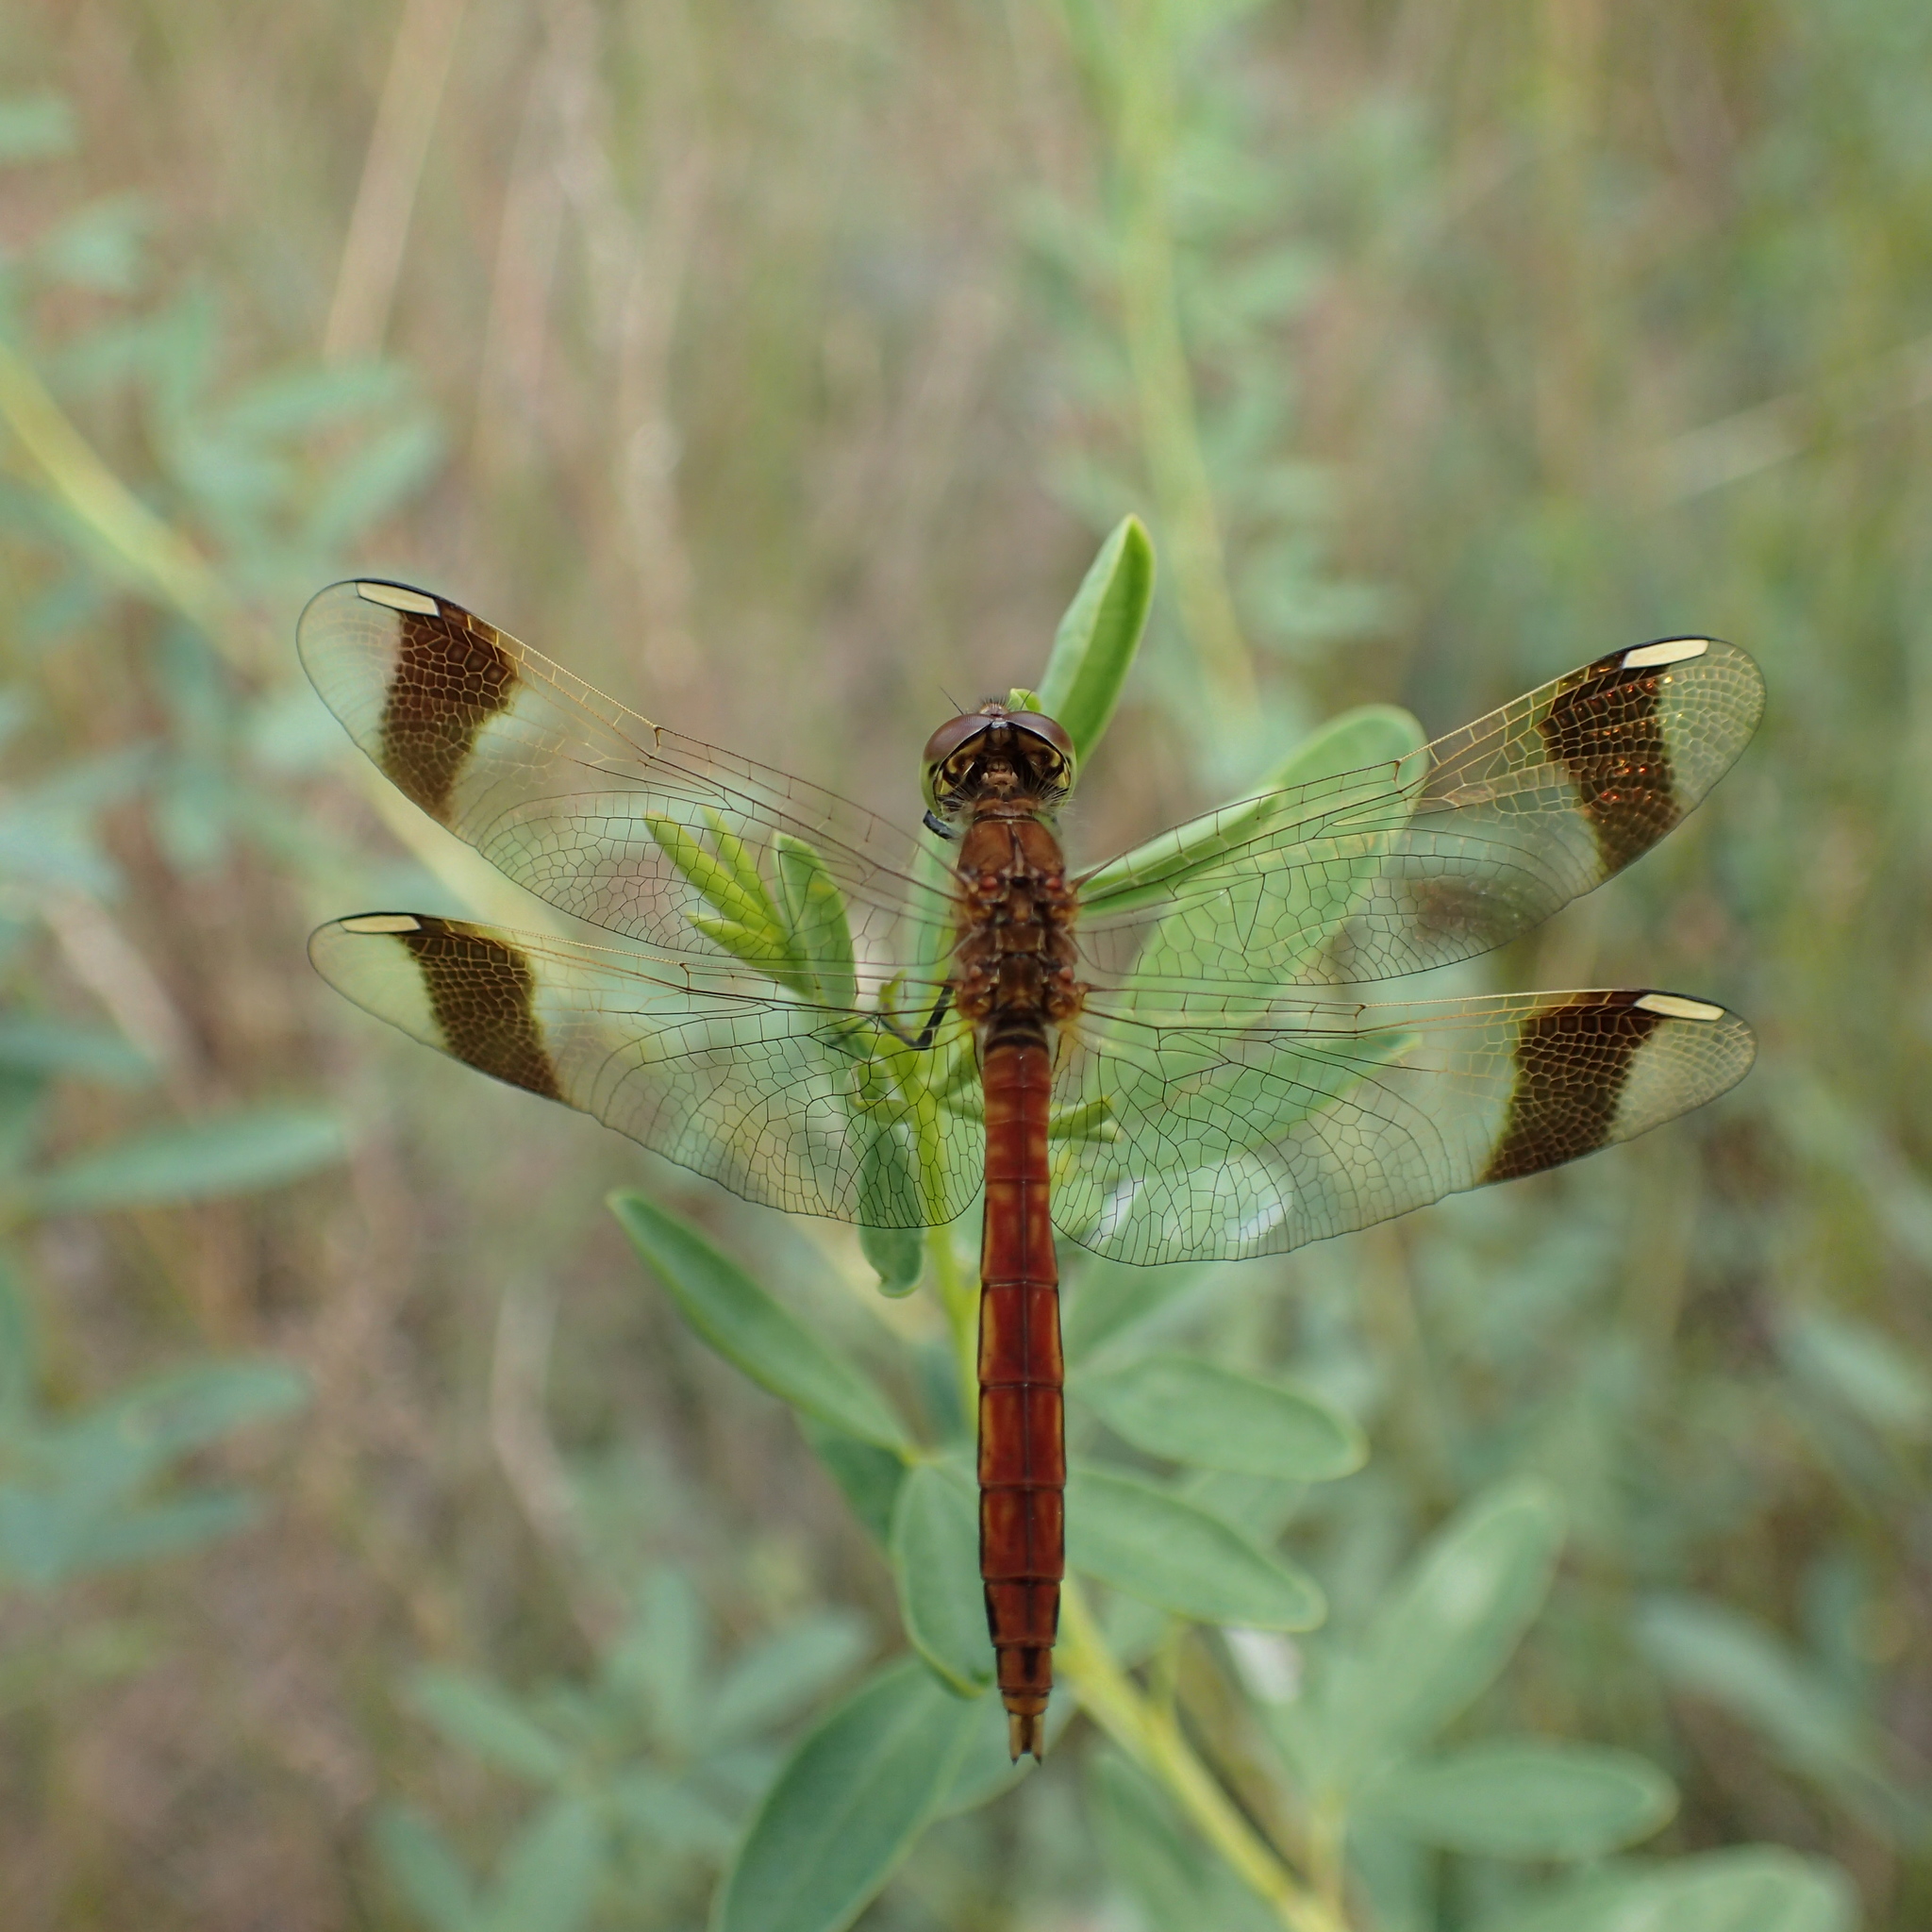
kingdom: Animalia
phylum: Arthropoda
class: Insecta
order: Odonata
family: Libellulidae
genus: Sympetrum
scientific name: Sympetrum pedemontanum
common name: Banded darter
